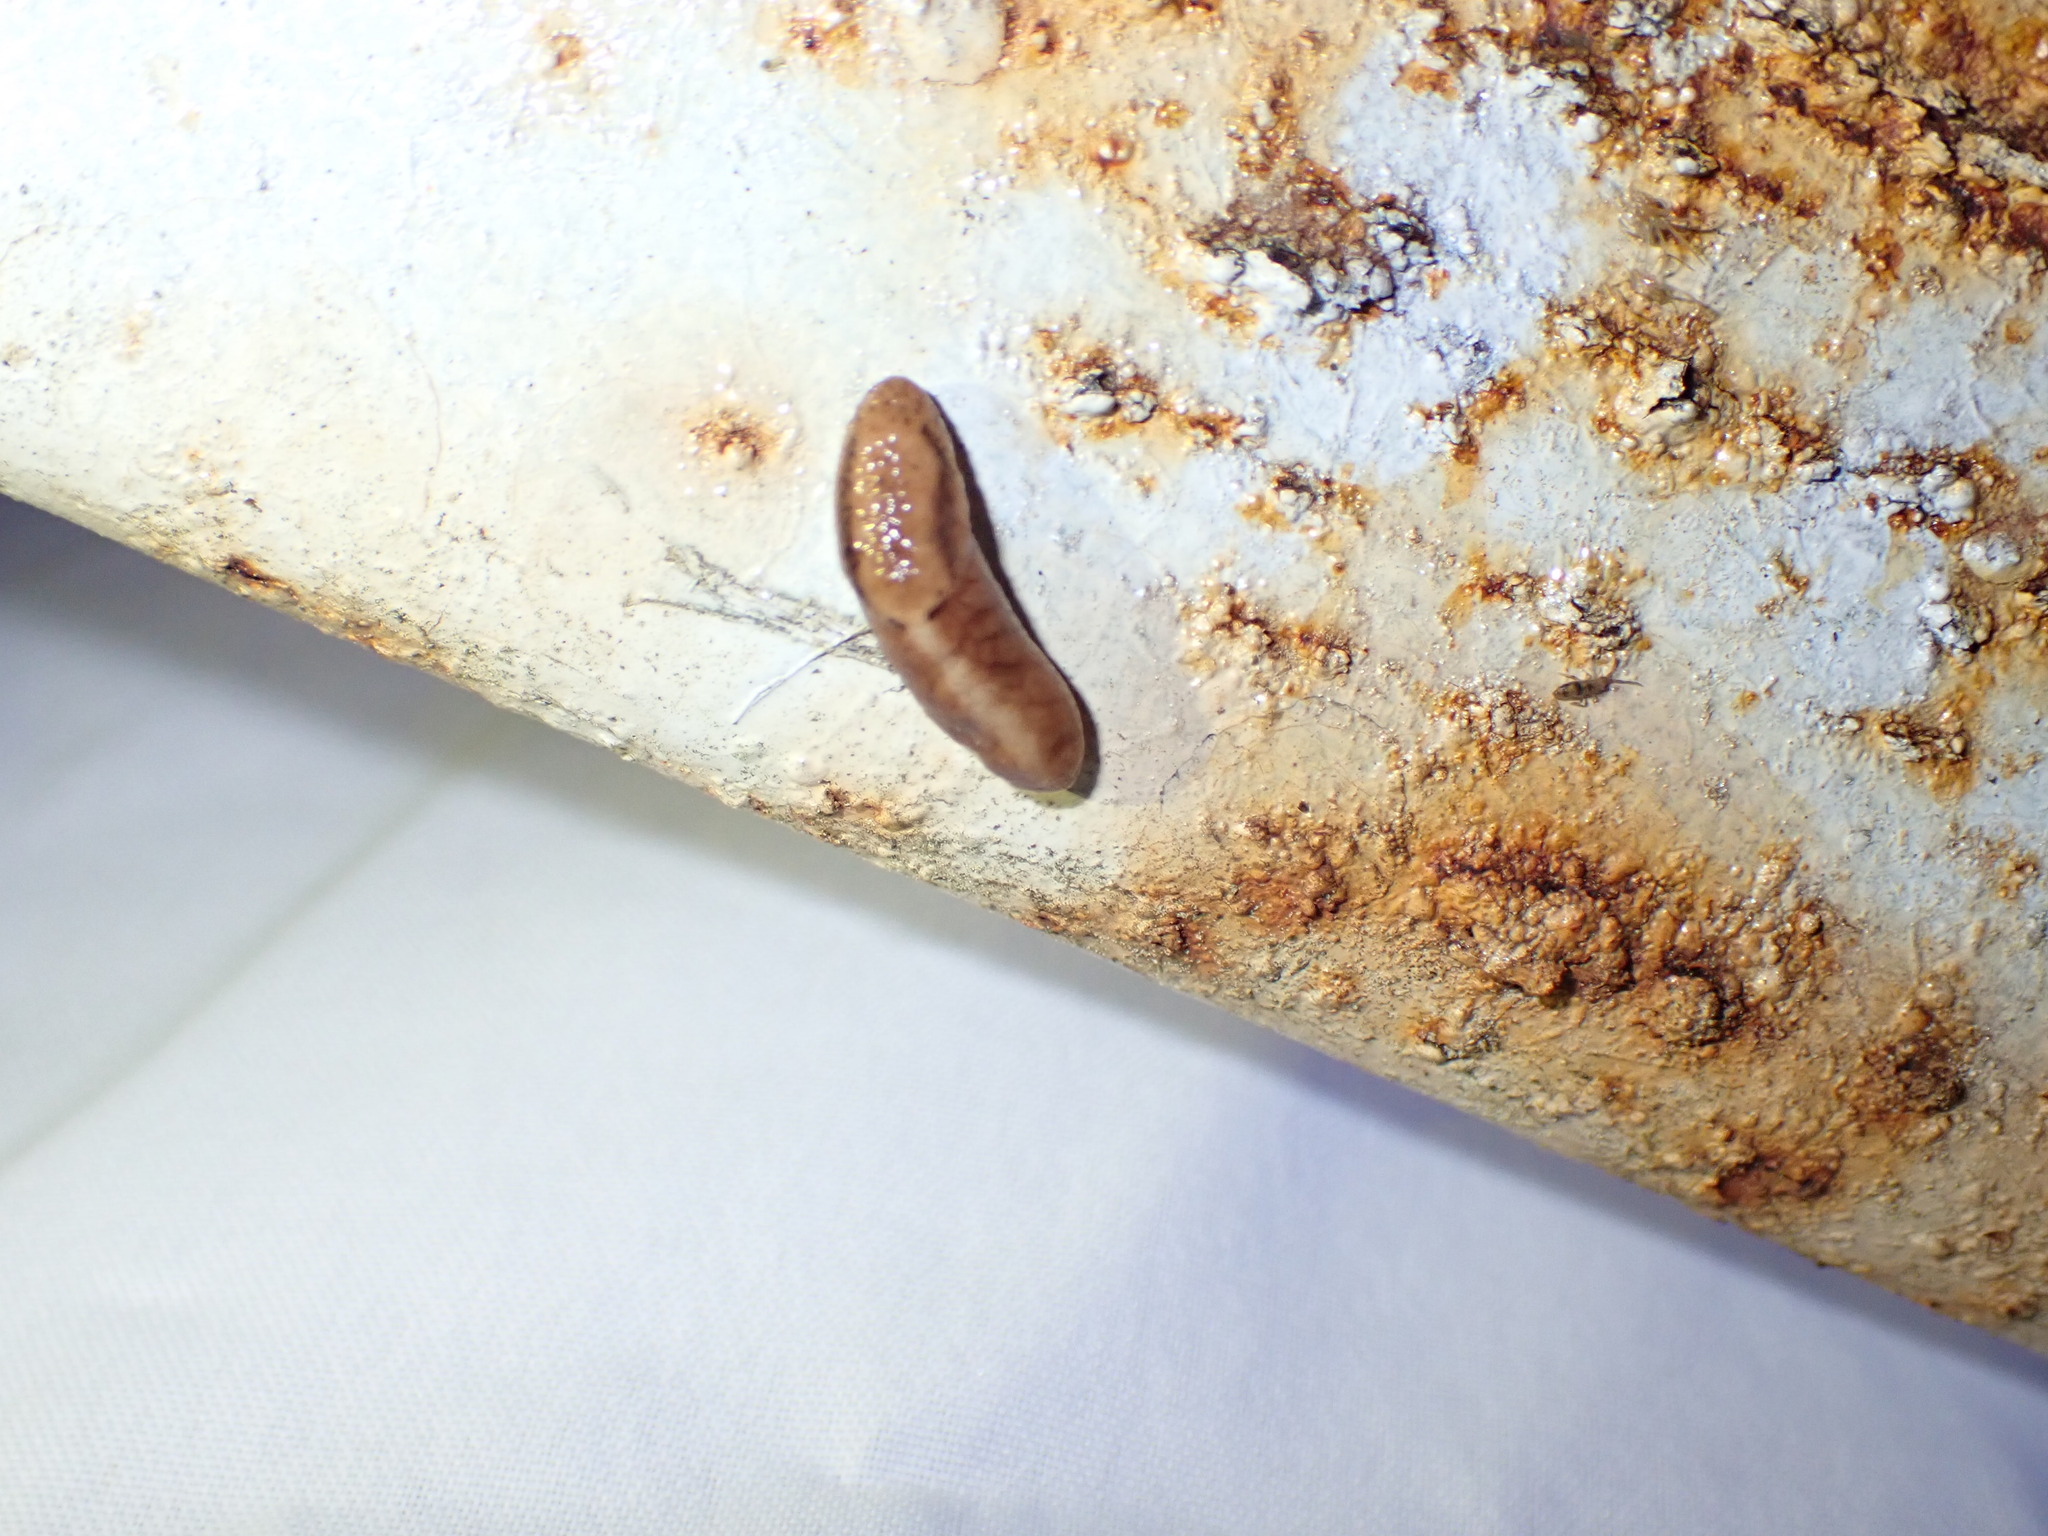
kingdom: Animalia
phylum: Mollusca
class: Gastropoda
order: Stylommatophora
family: Ariolimacidae
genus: Prophysaon
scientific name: Prophysaon andersonii
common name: Reticulate taildropper
